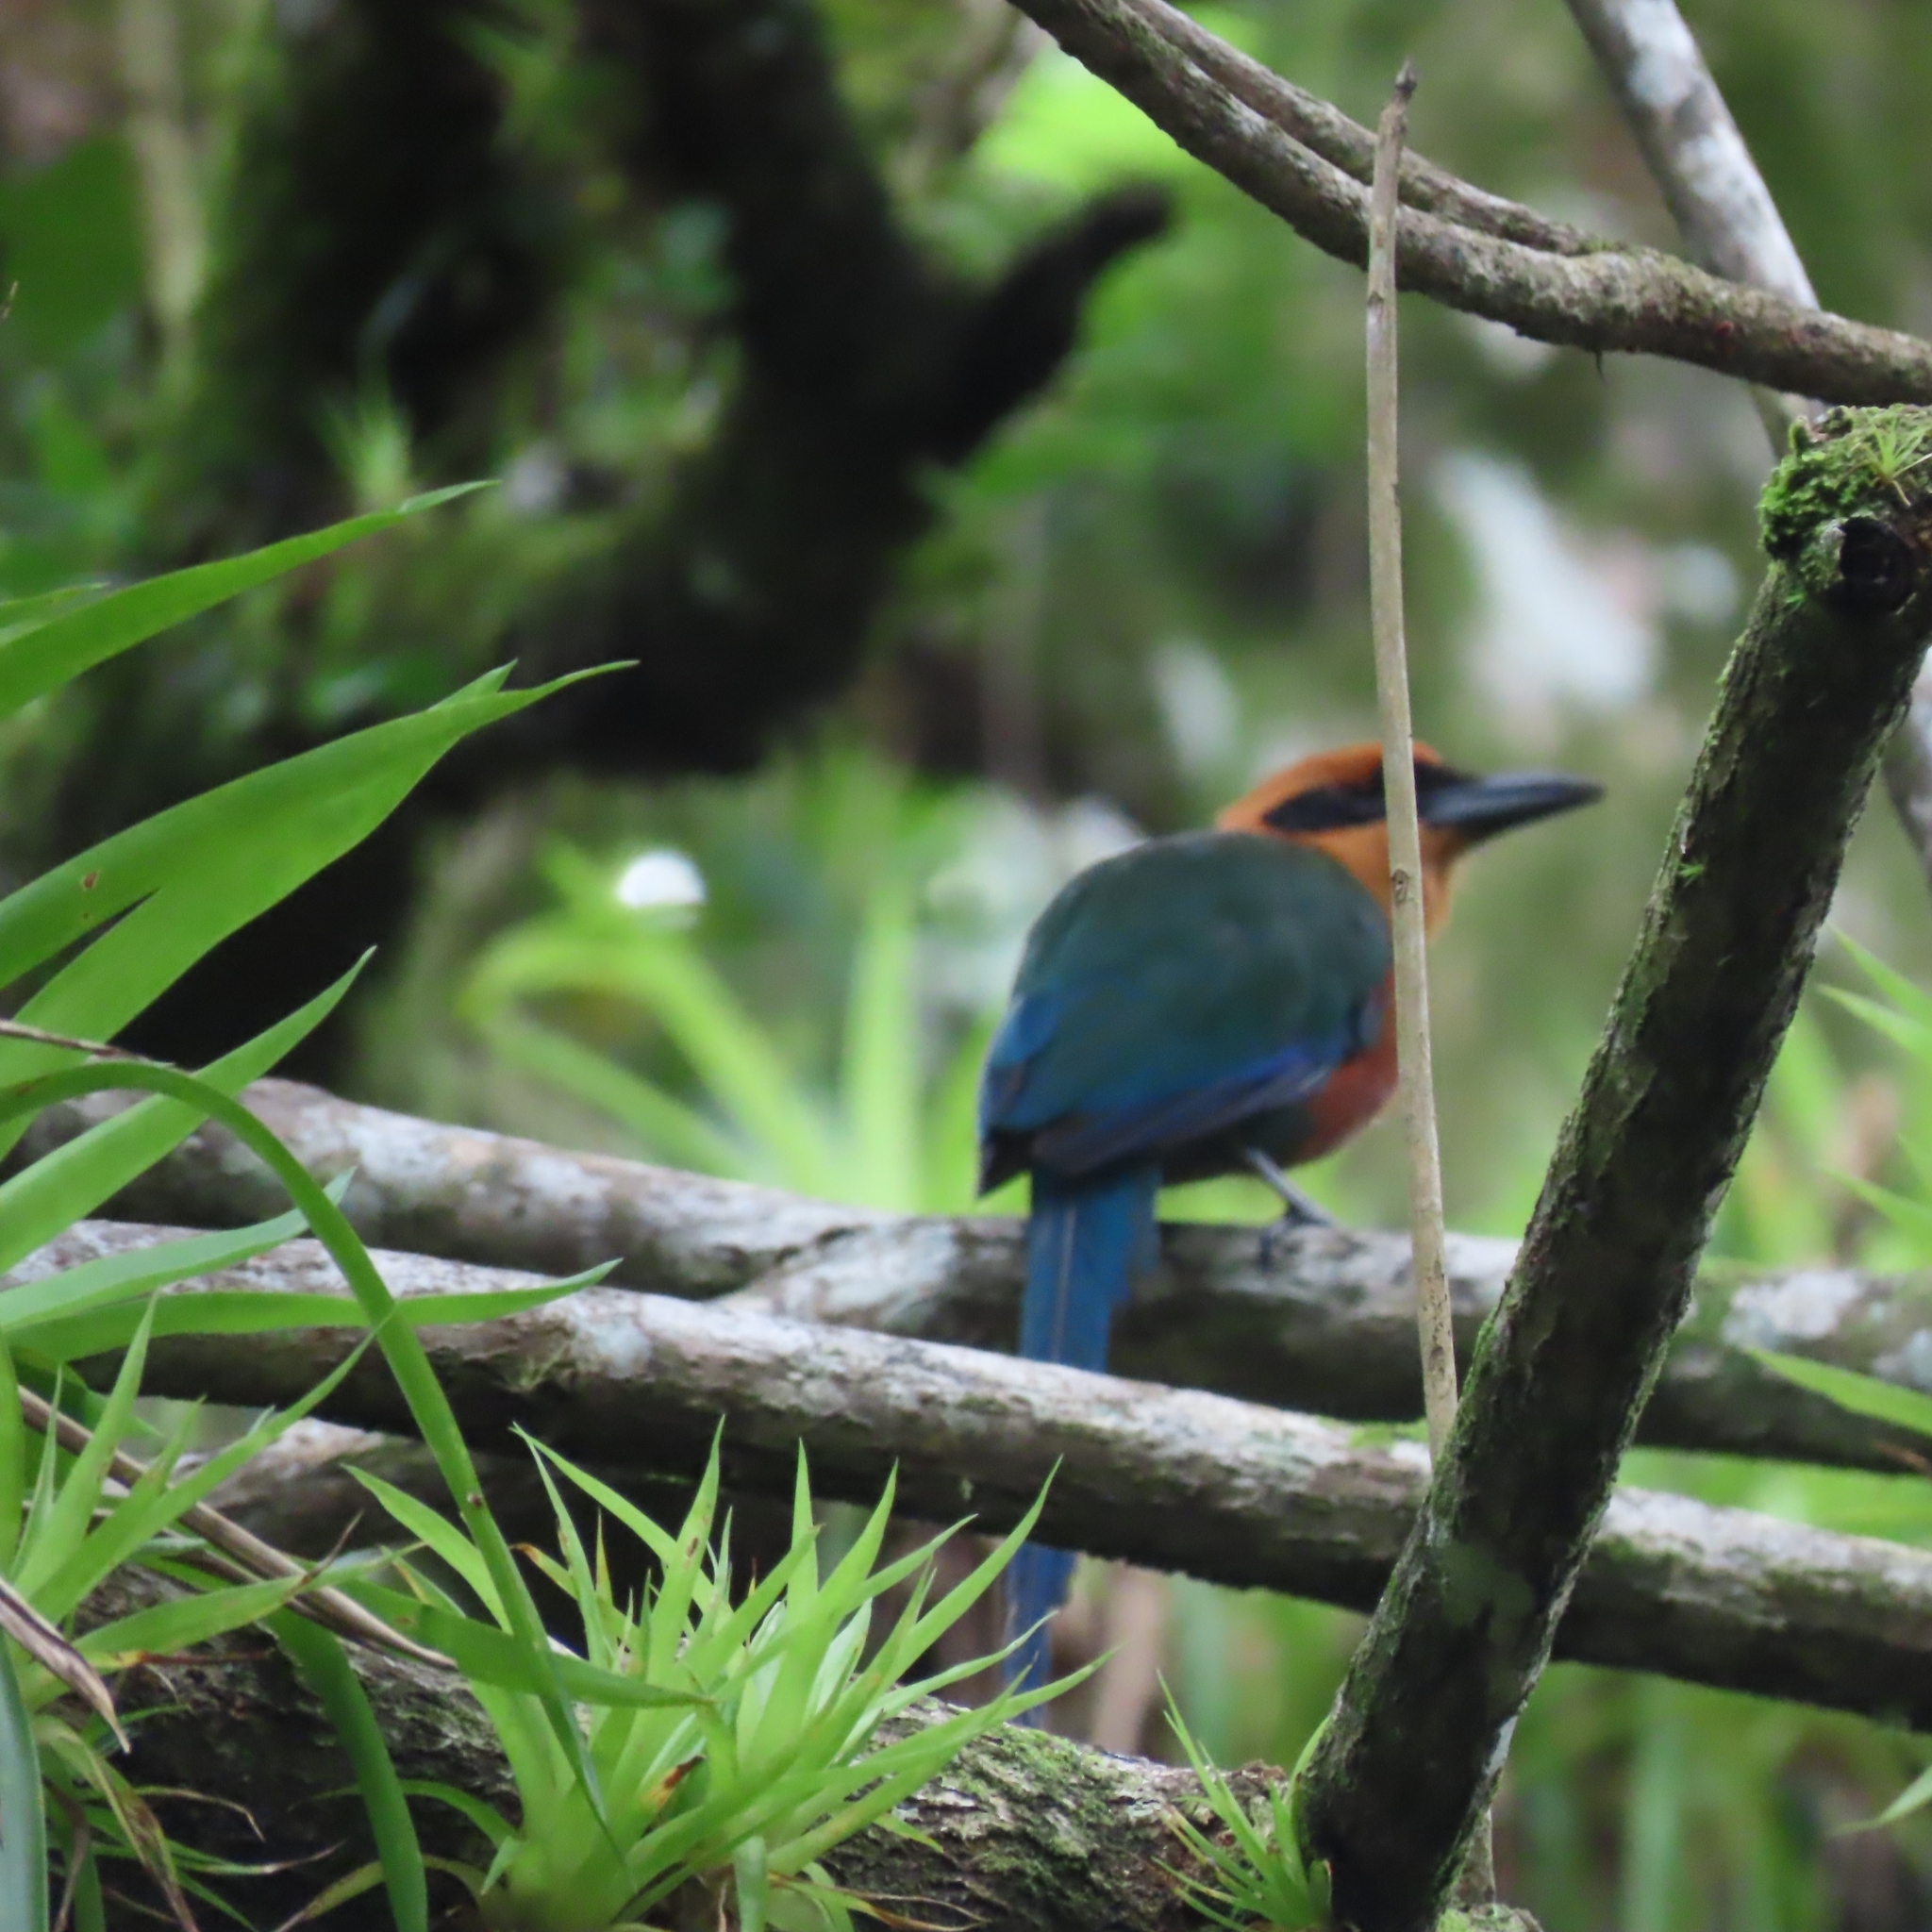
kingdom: Animalia
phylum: Chordata
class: Aves
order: Coraciiformes
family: Momotidae
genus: Baryphthengus
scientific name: Baryphthengus martii
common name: Rufous motmot
